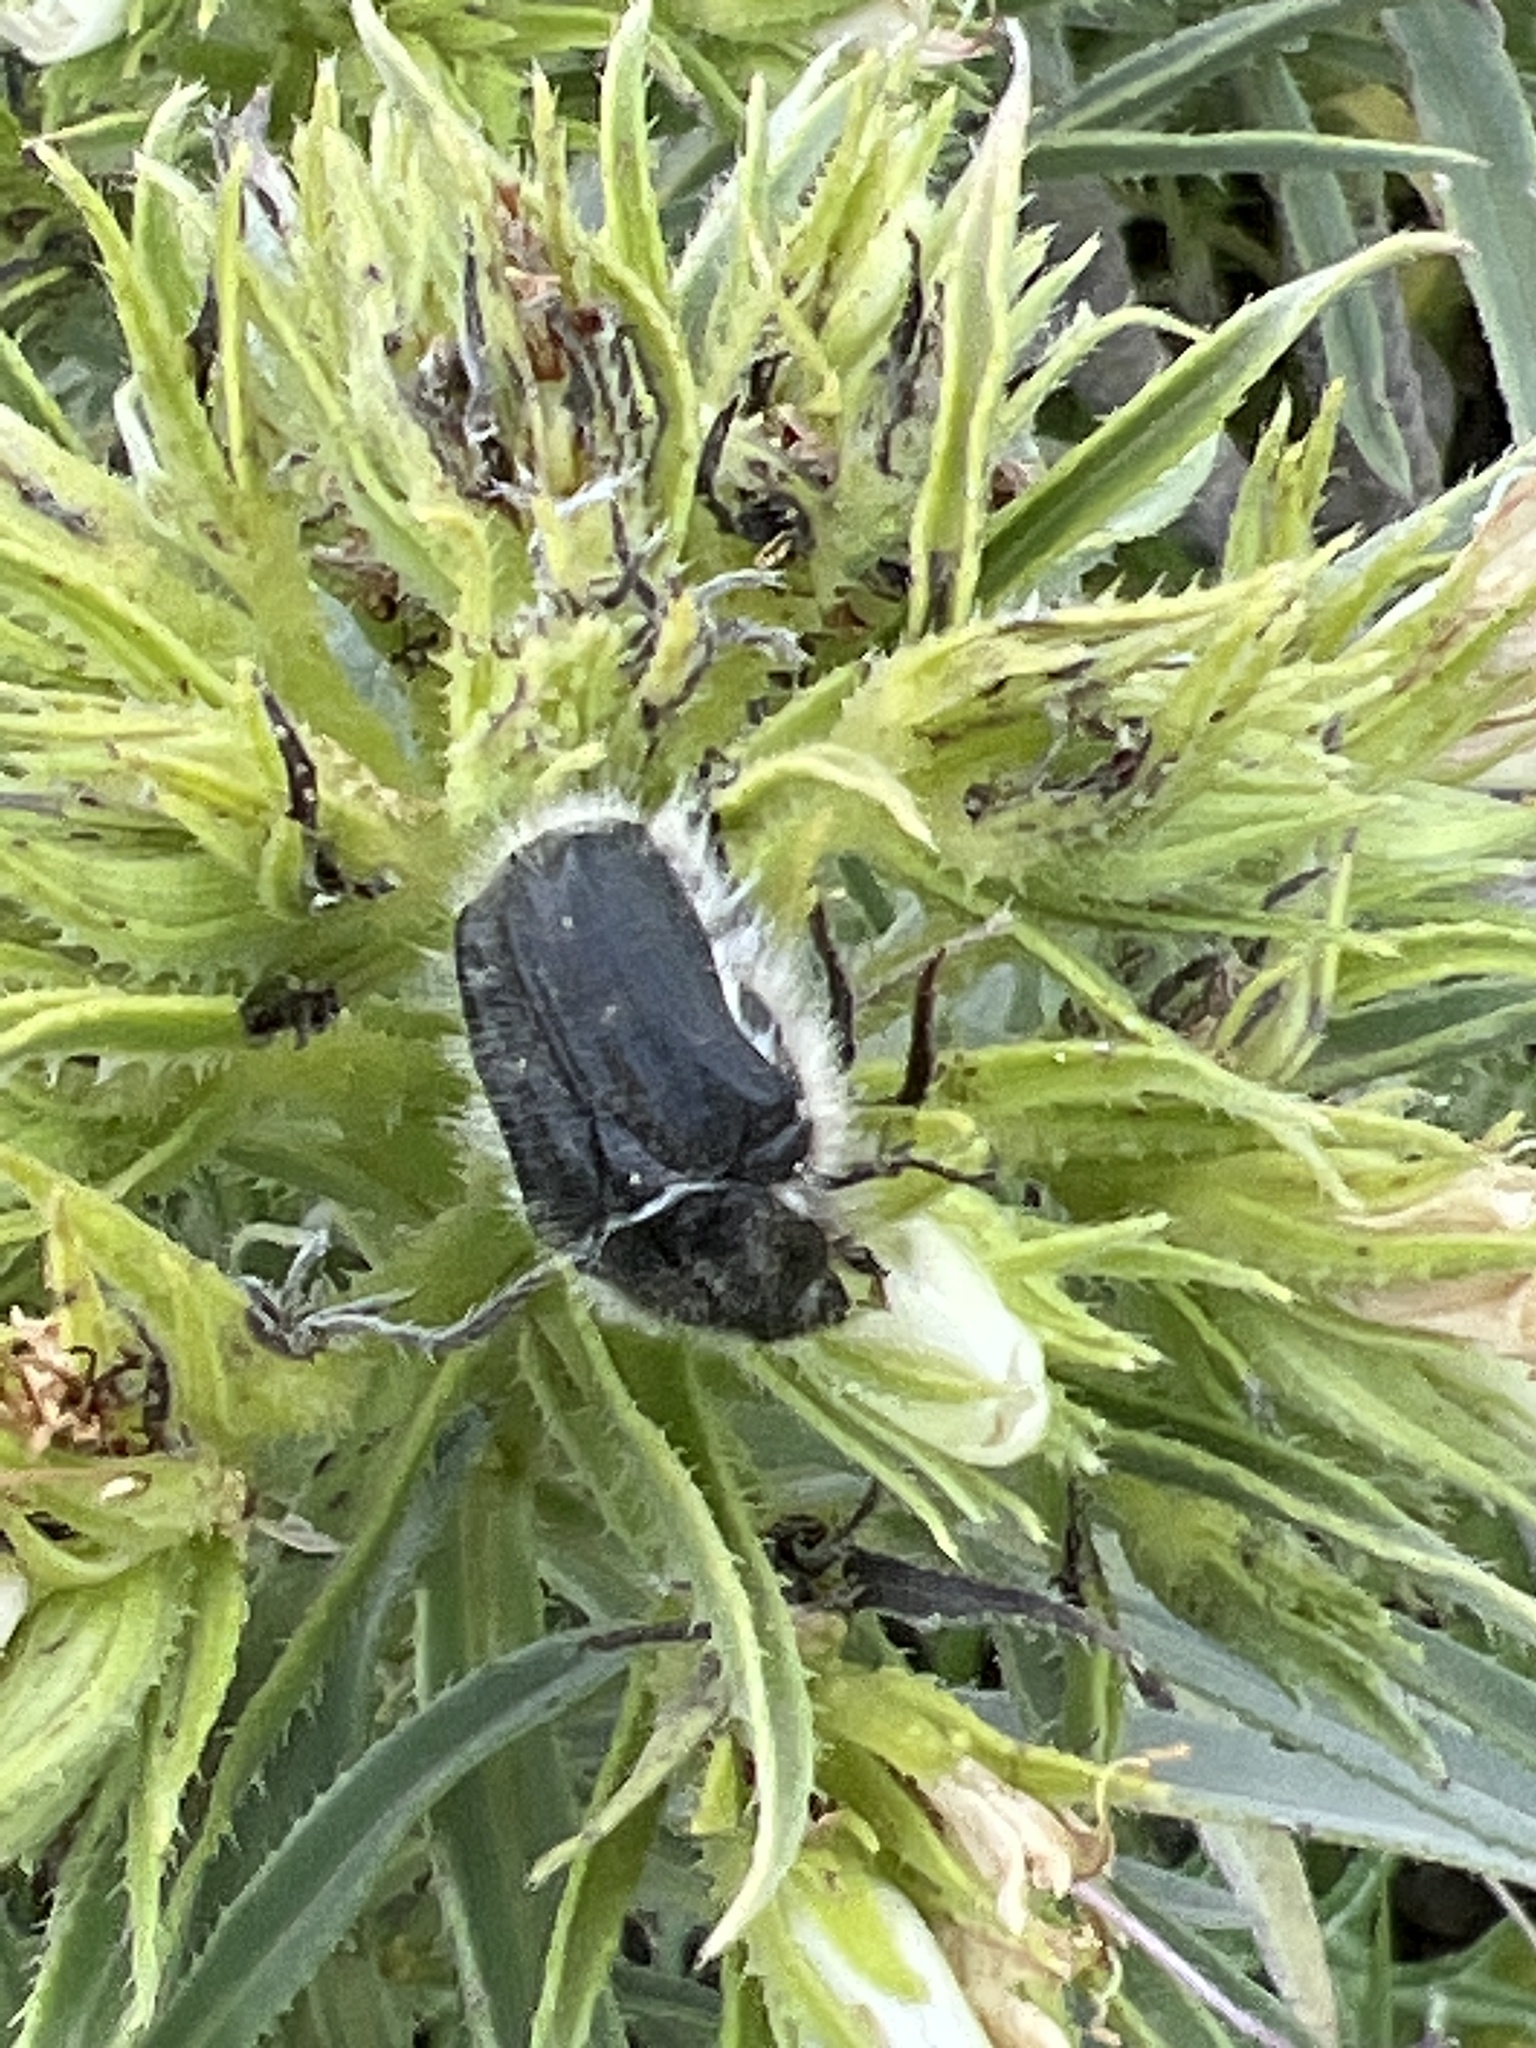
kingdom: Animalia
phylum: Arthropoda
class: Insecta
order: Coleoptera
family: Scarabaeidae
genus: Tropinota
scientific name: Tropinota squalida
